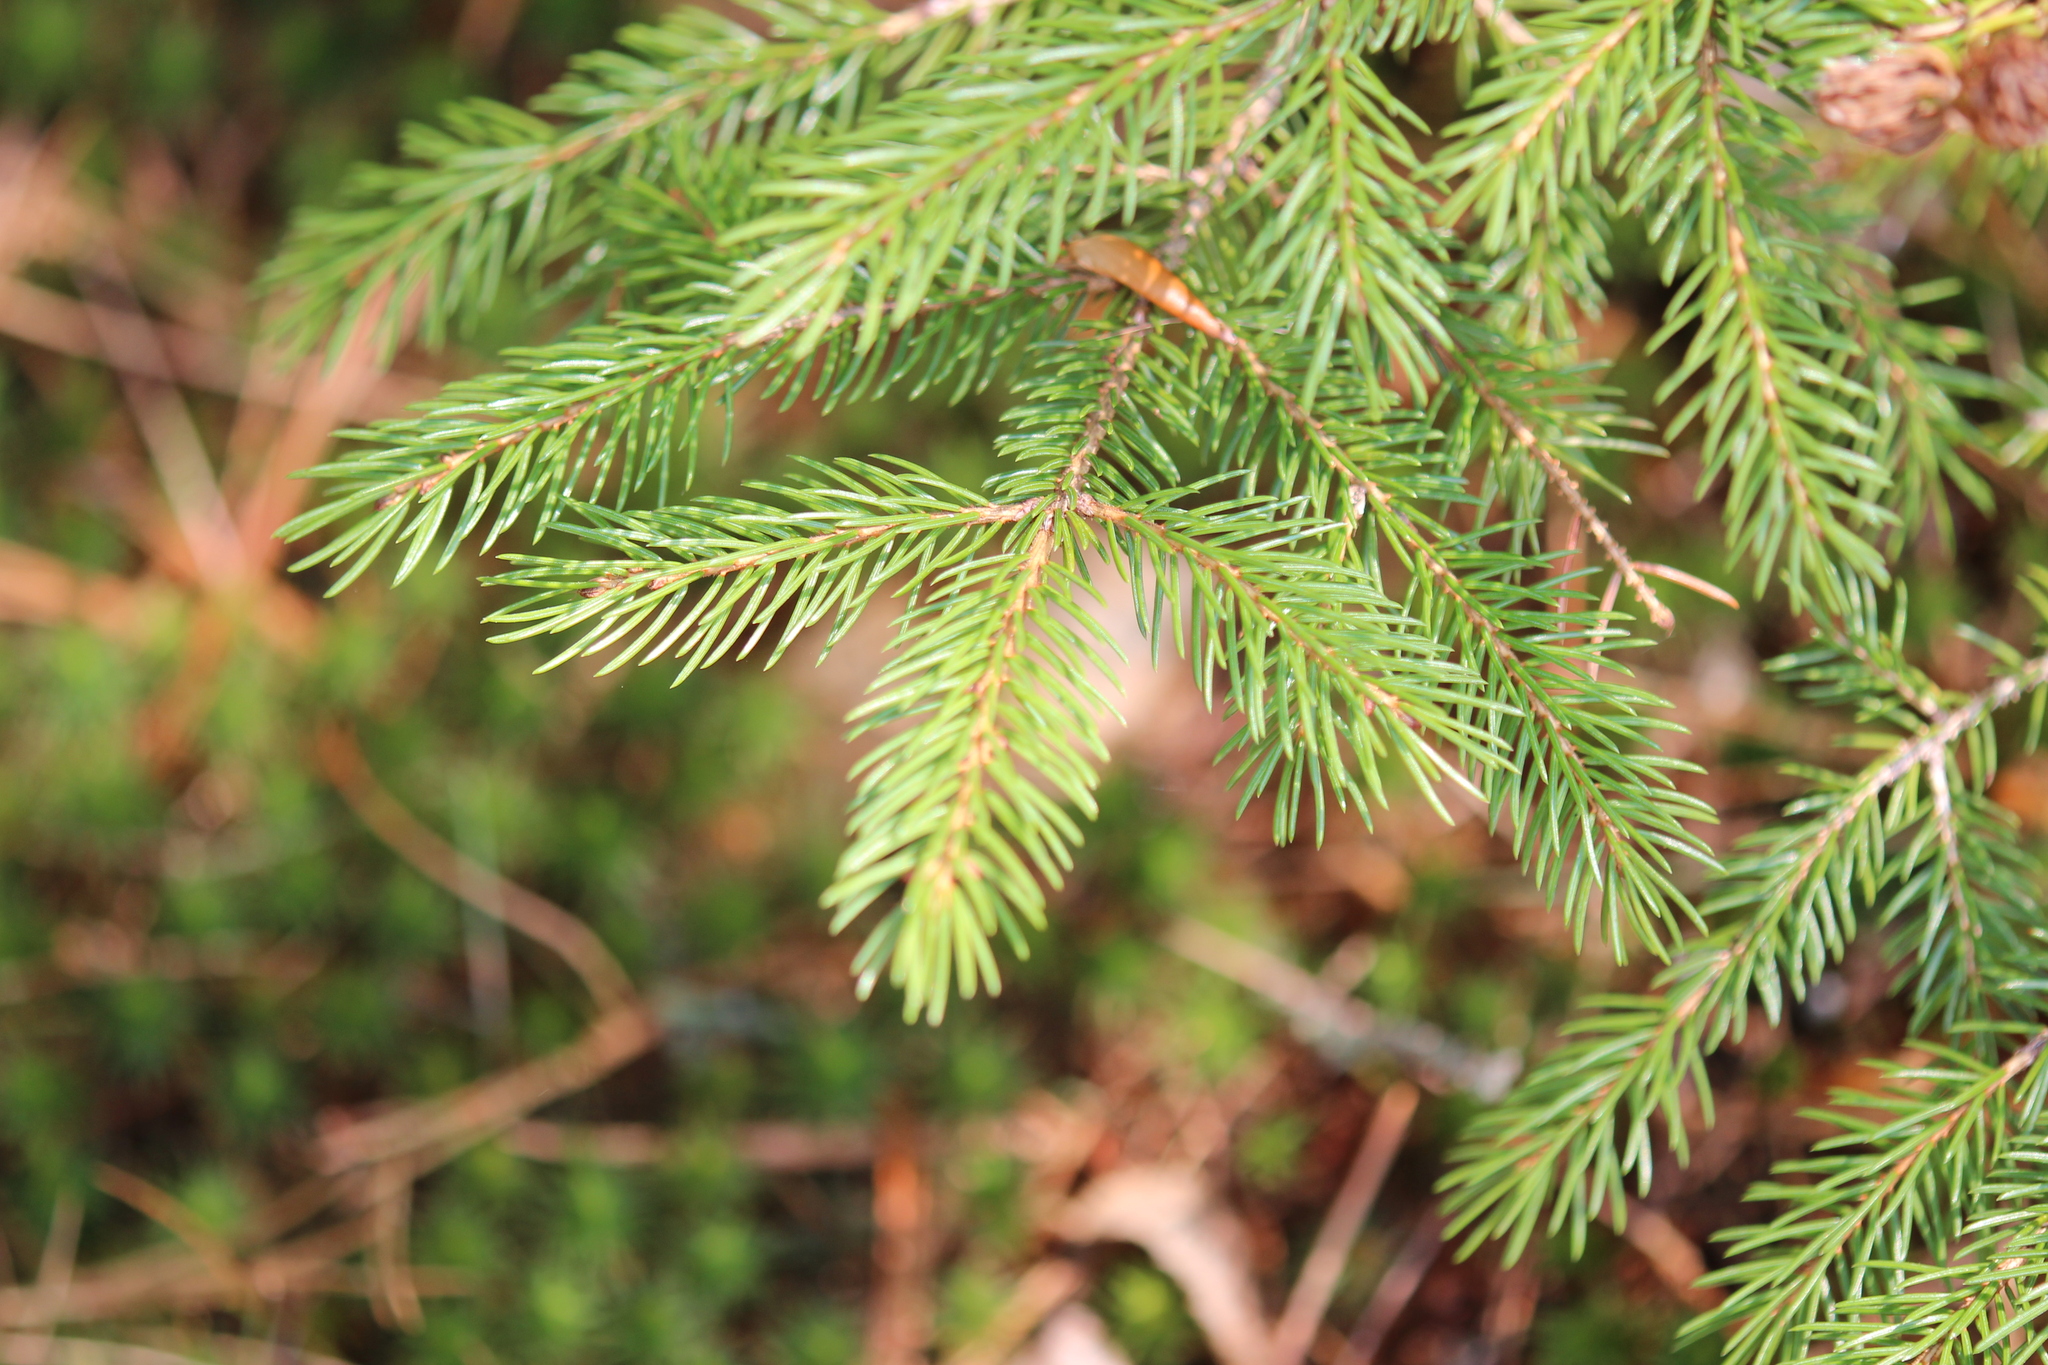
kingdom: Plantae
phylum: Tracheophyta
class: Pinopsida
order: Pinales
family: Pinaceae
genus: Picea
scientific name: Picea rubens
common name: Red spruce
